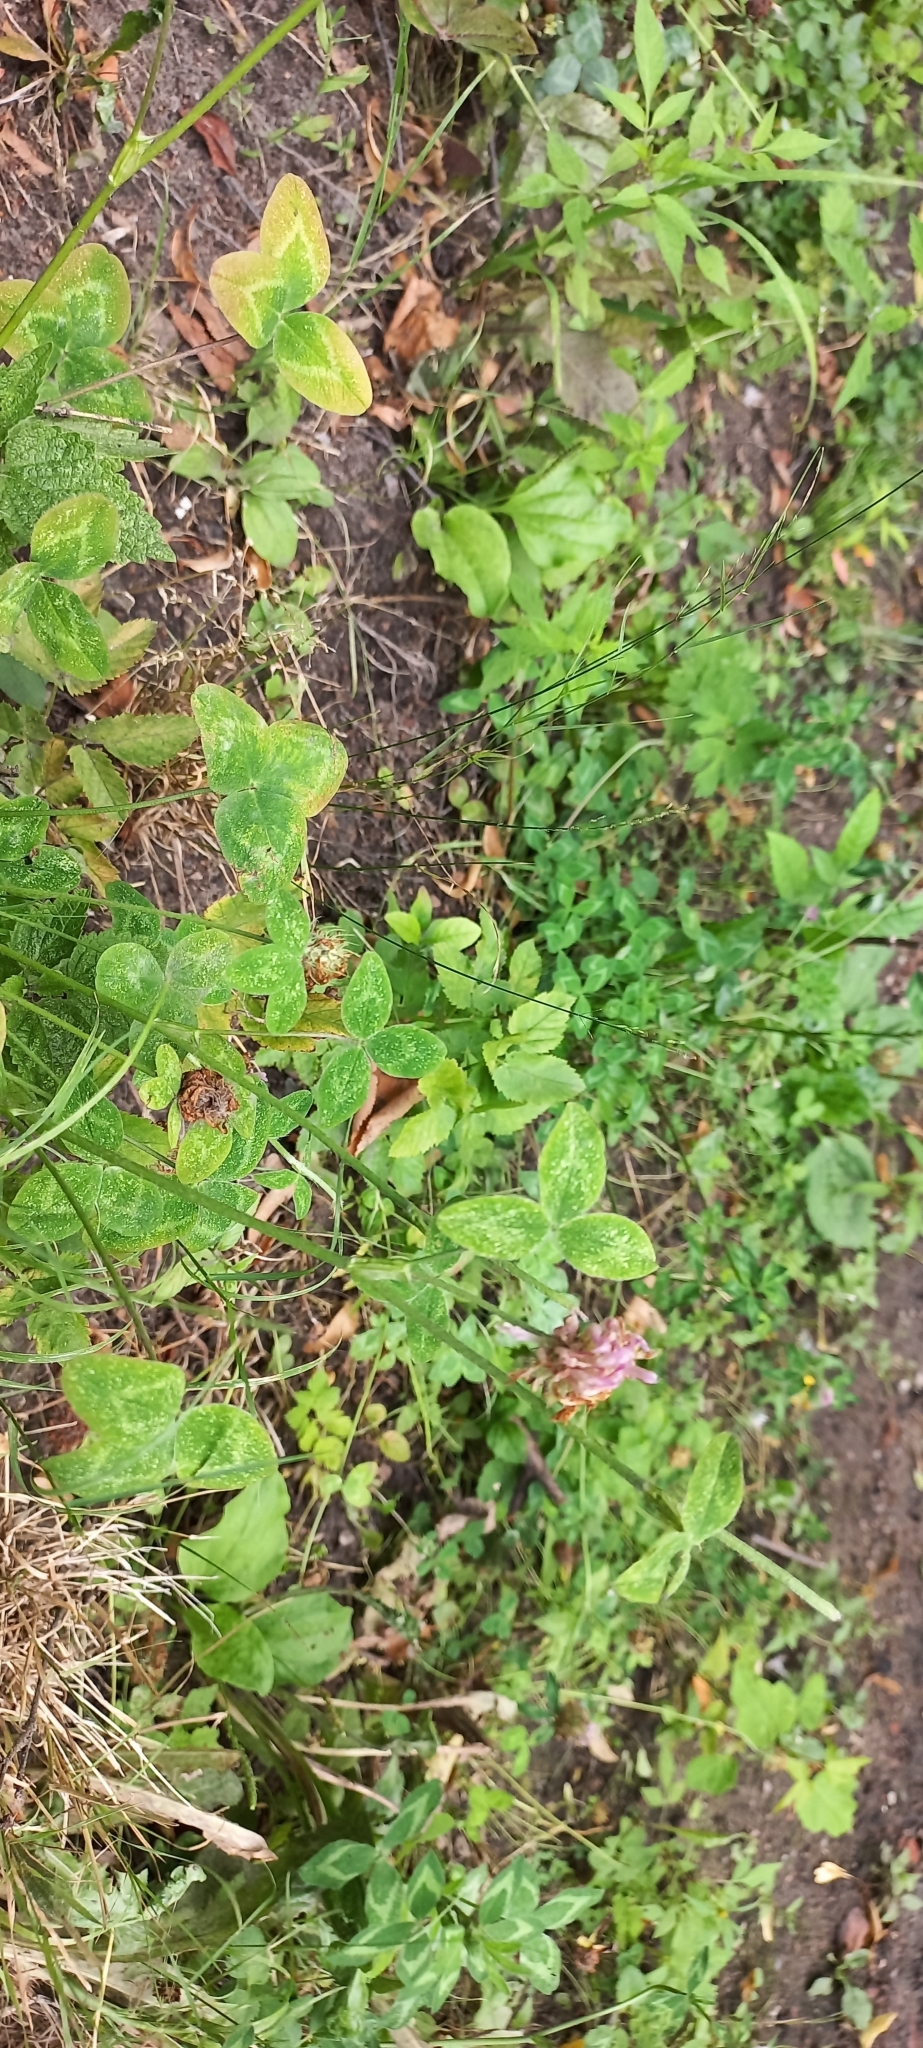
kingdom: Plantae
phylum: Tracheophyta
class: Magnoliopsida
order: Fabales
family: Fabaceae
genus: Trifolium
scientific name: Trifolium pratense
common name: Red clover
